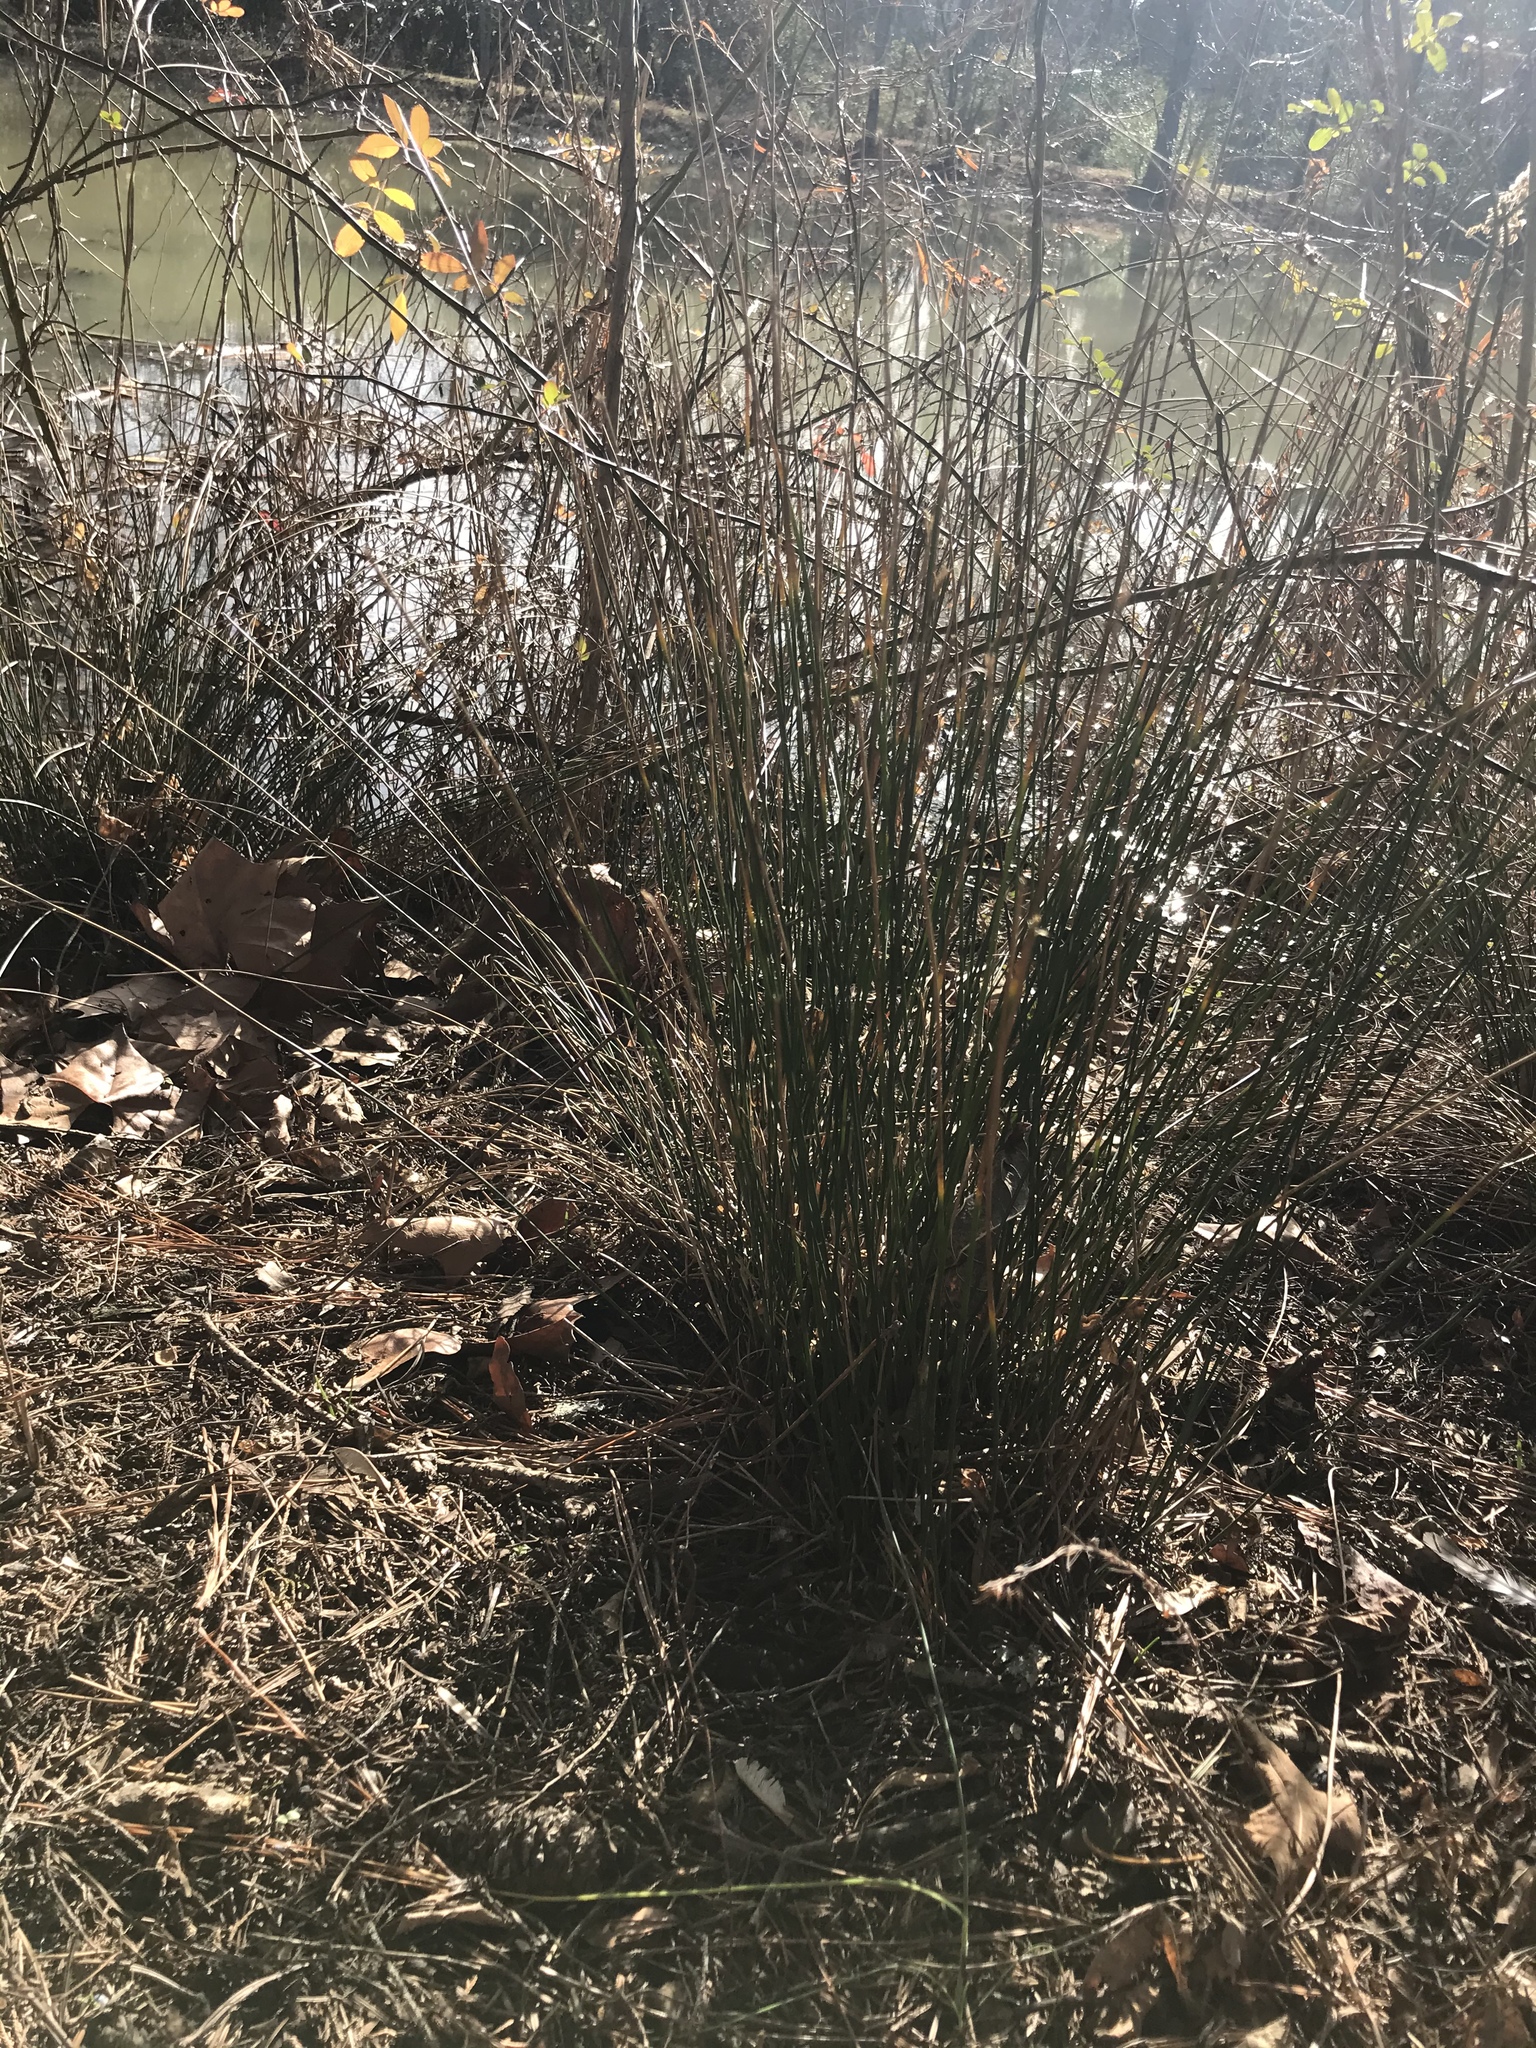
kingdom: Plantae
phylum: Tracheophyta
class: Liliopsida
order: Poales
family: Juncaceae
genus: Juncus
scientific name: Juncus effusus
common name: Soft rush
